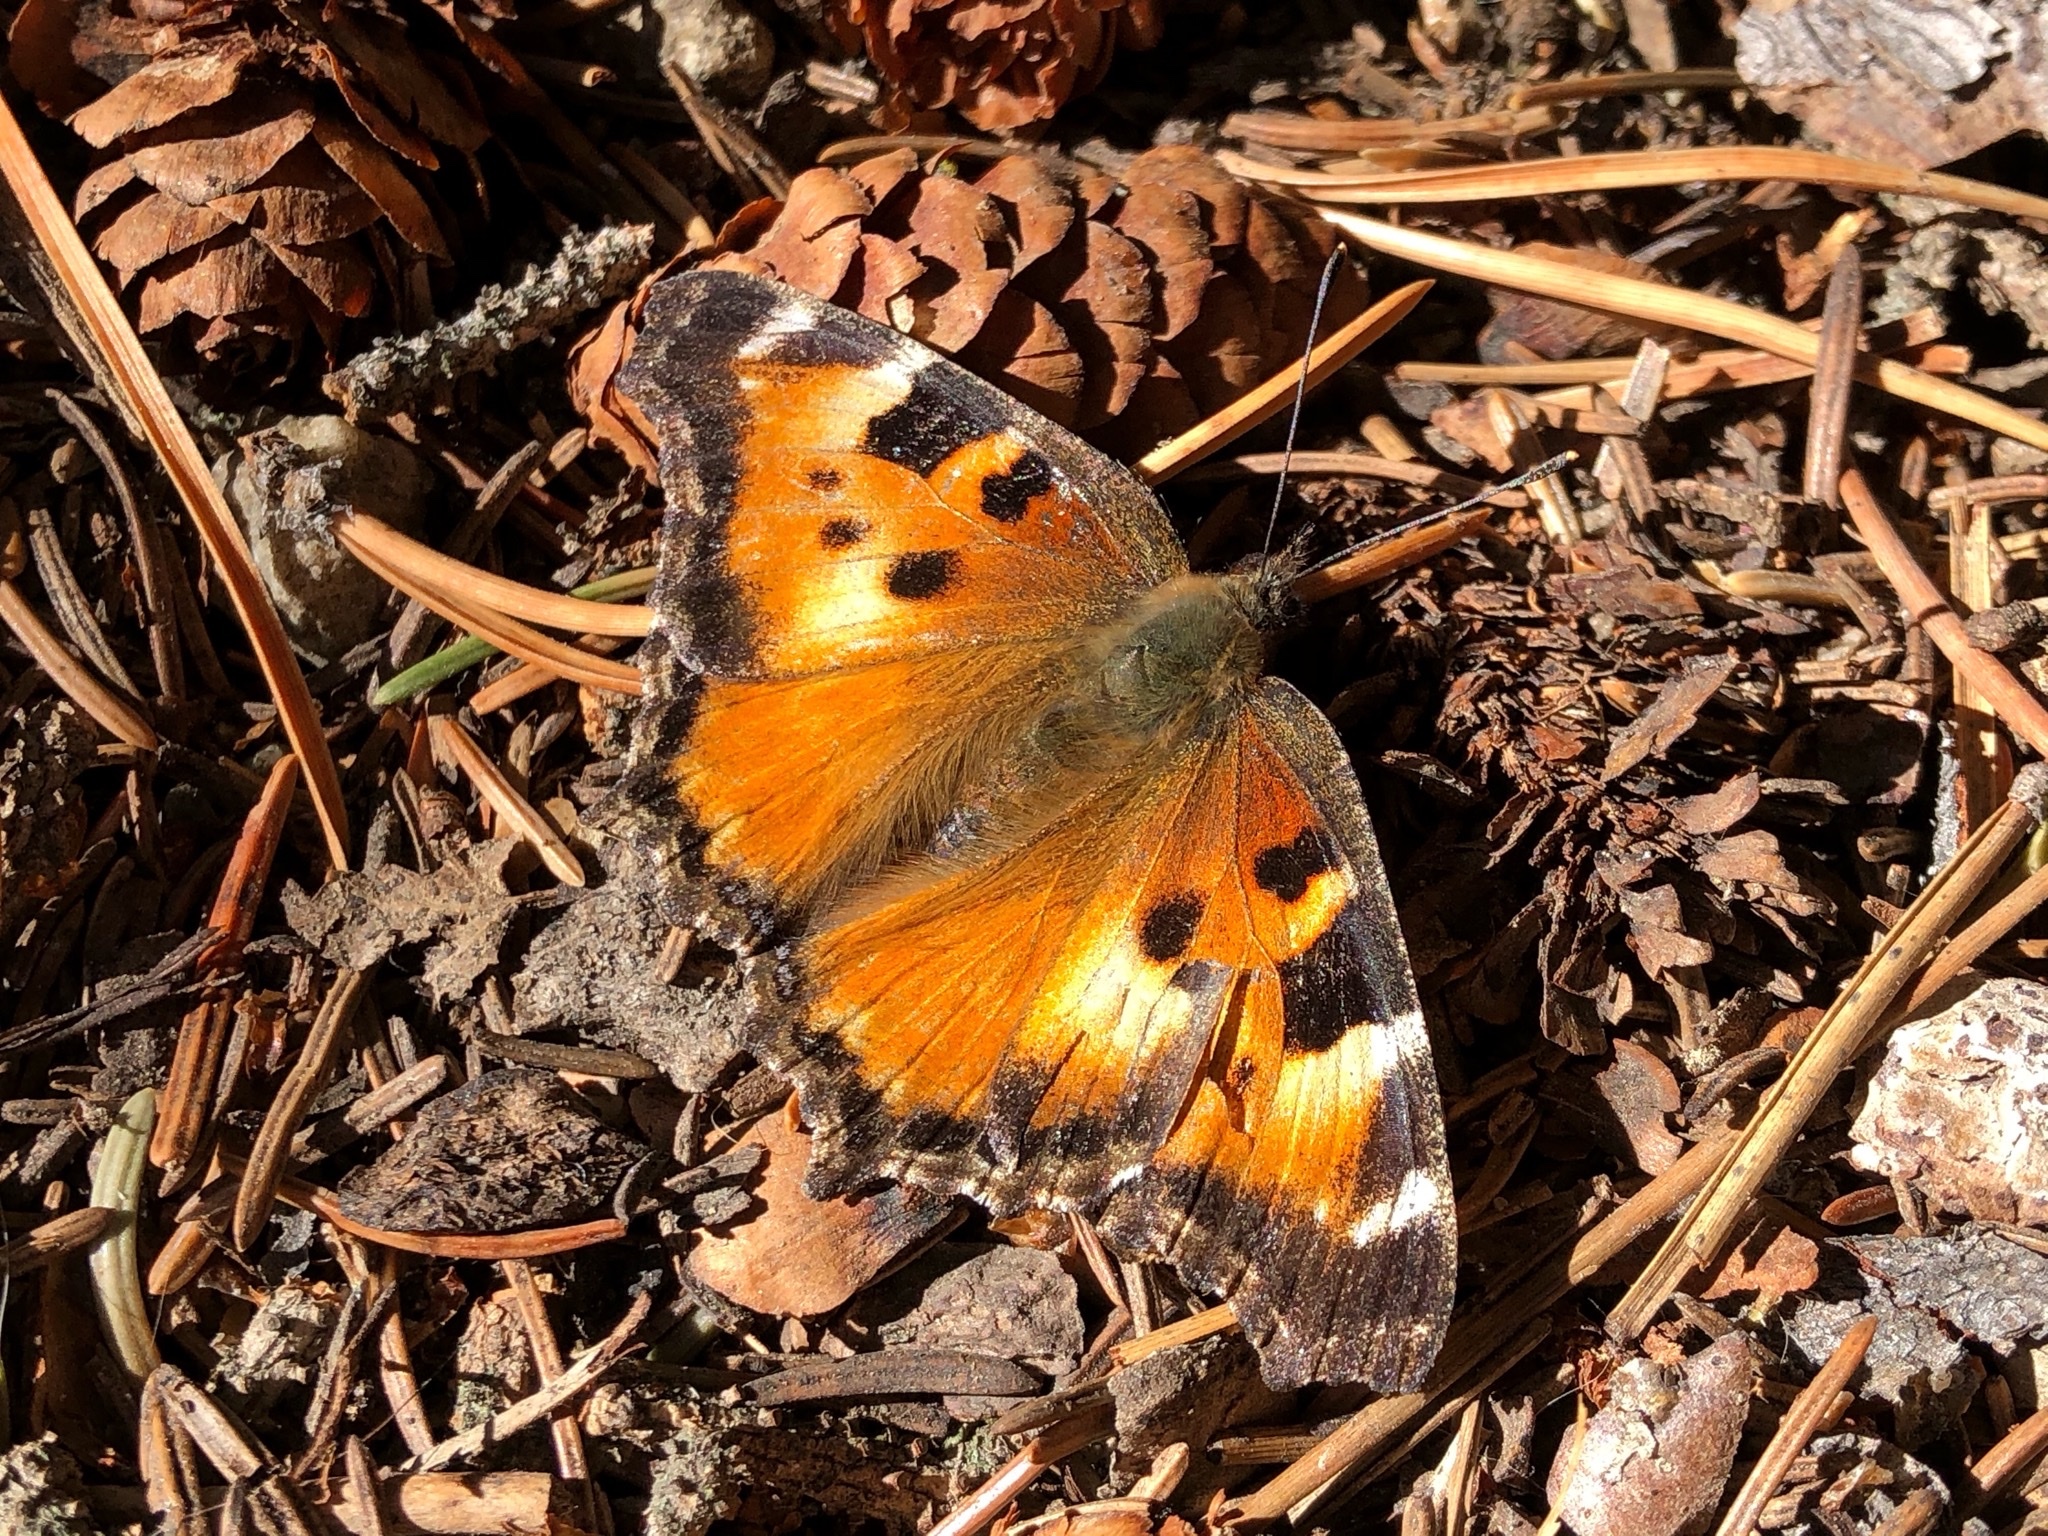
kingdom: Animalia
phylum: Arthropoda
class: Insecta
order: Lepidoptera
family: Nymphalidae
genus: Nymphalis
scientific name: Nymphalis californica
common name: California tortoiseshell
